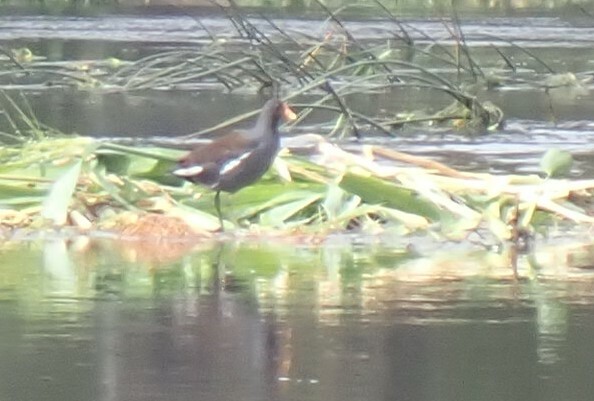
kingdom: Animalia
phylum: Chordata
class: Aves
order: Gruiformes
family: Rallidae
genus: Gallinula
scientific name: Gallinula chloropus
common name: Common moorhen
